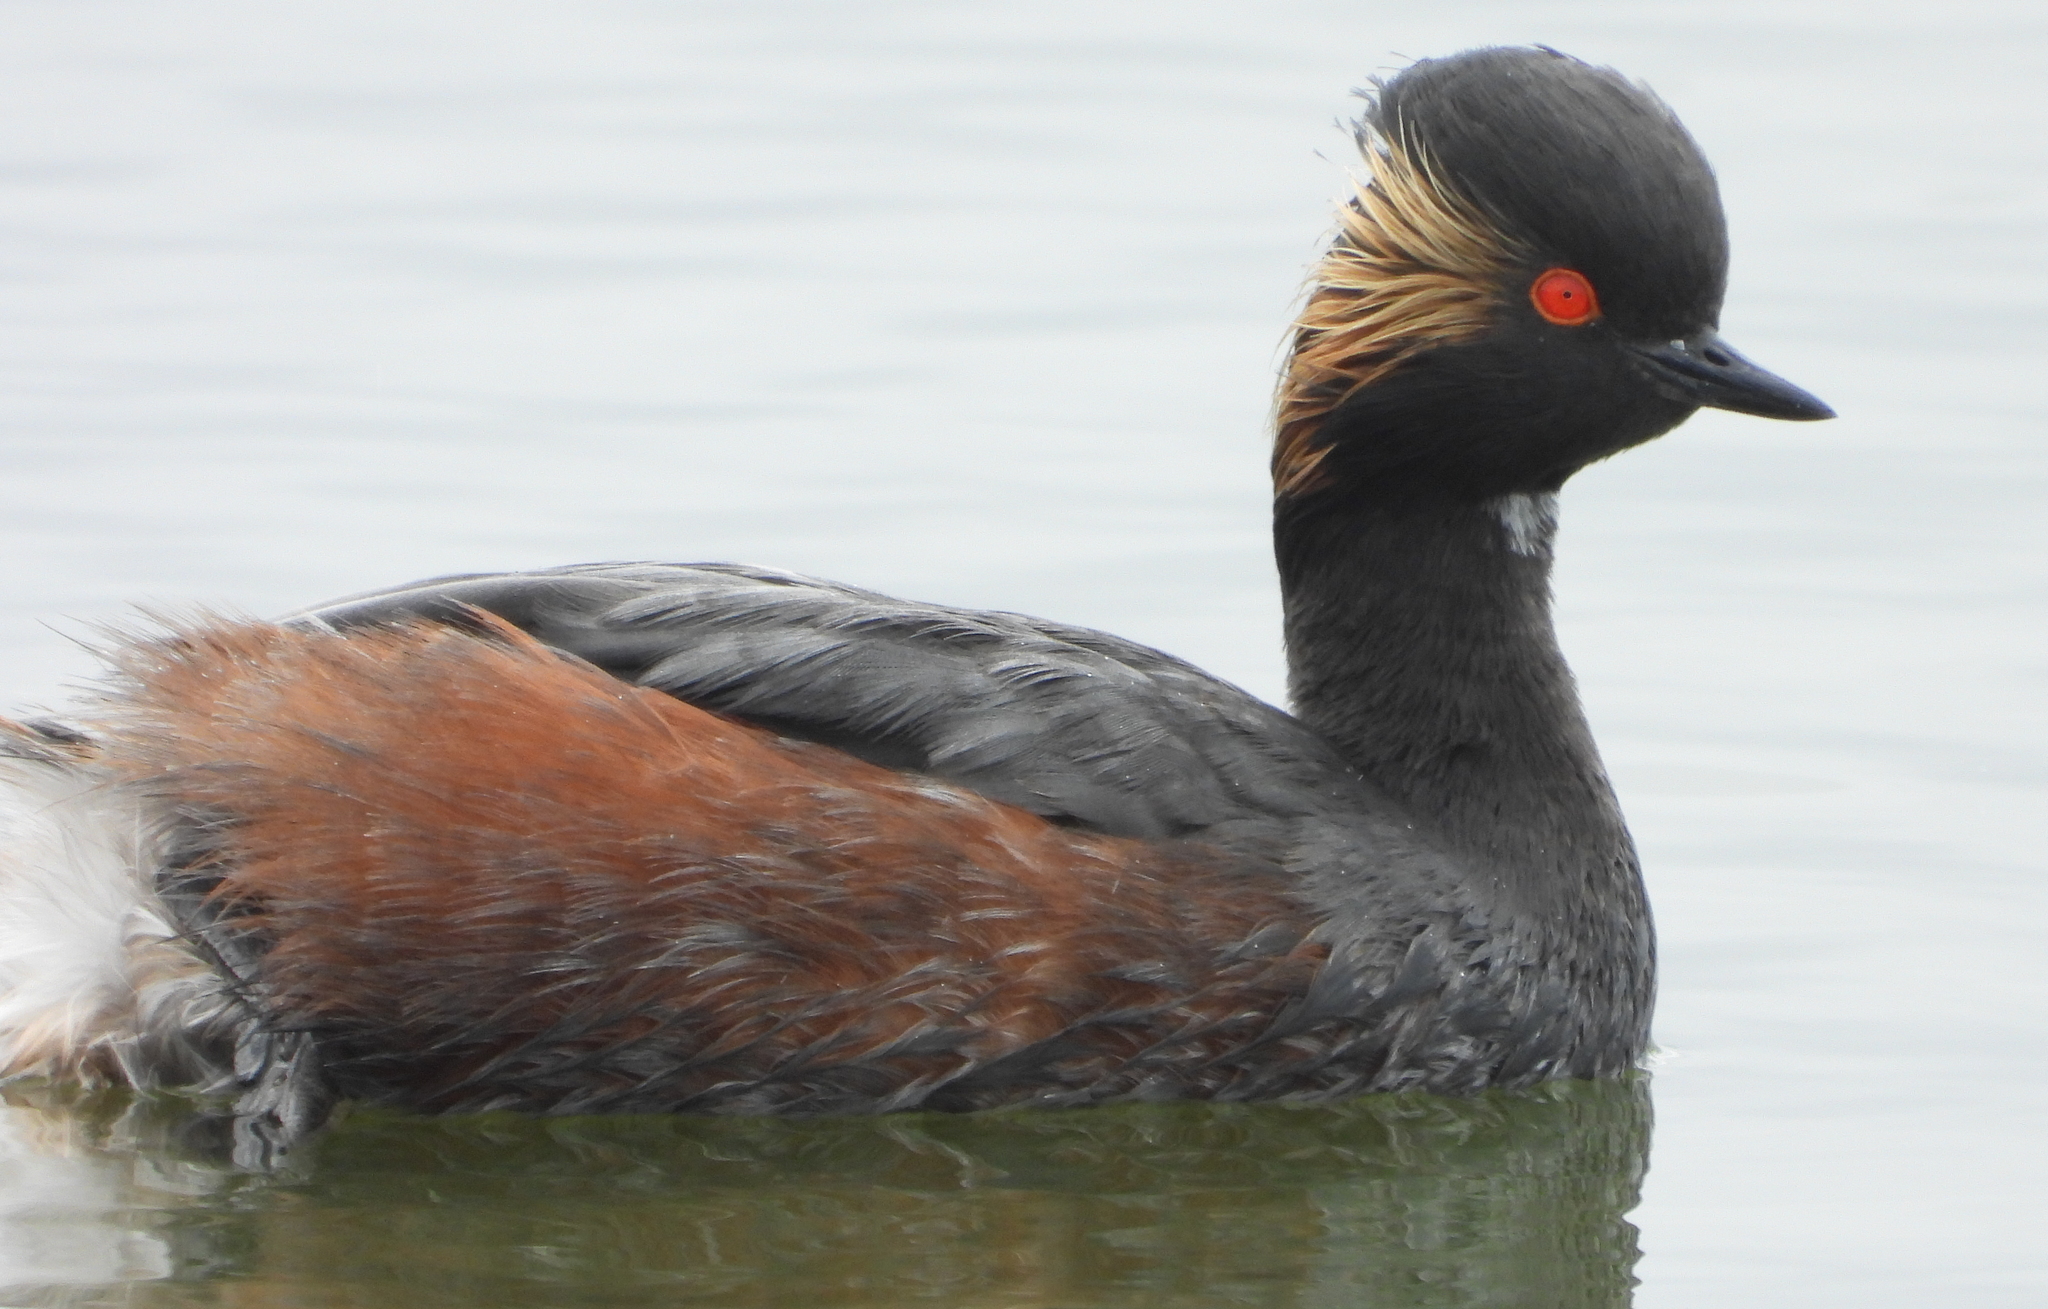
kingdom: Animalia
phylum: Chordata
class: Aves
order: Podicipediformes
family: Podicipedidae
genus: Podiceps
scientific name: Podiceps nigricollis
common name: Black-necked grebe
